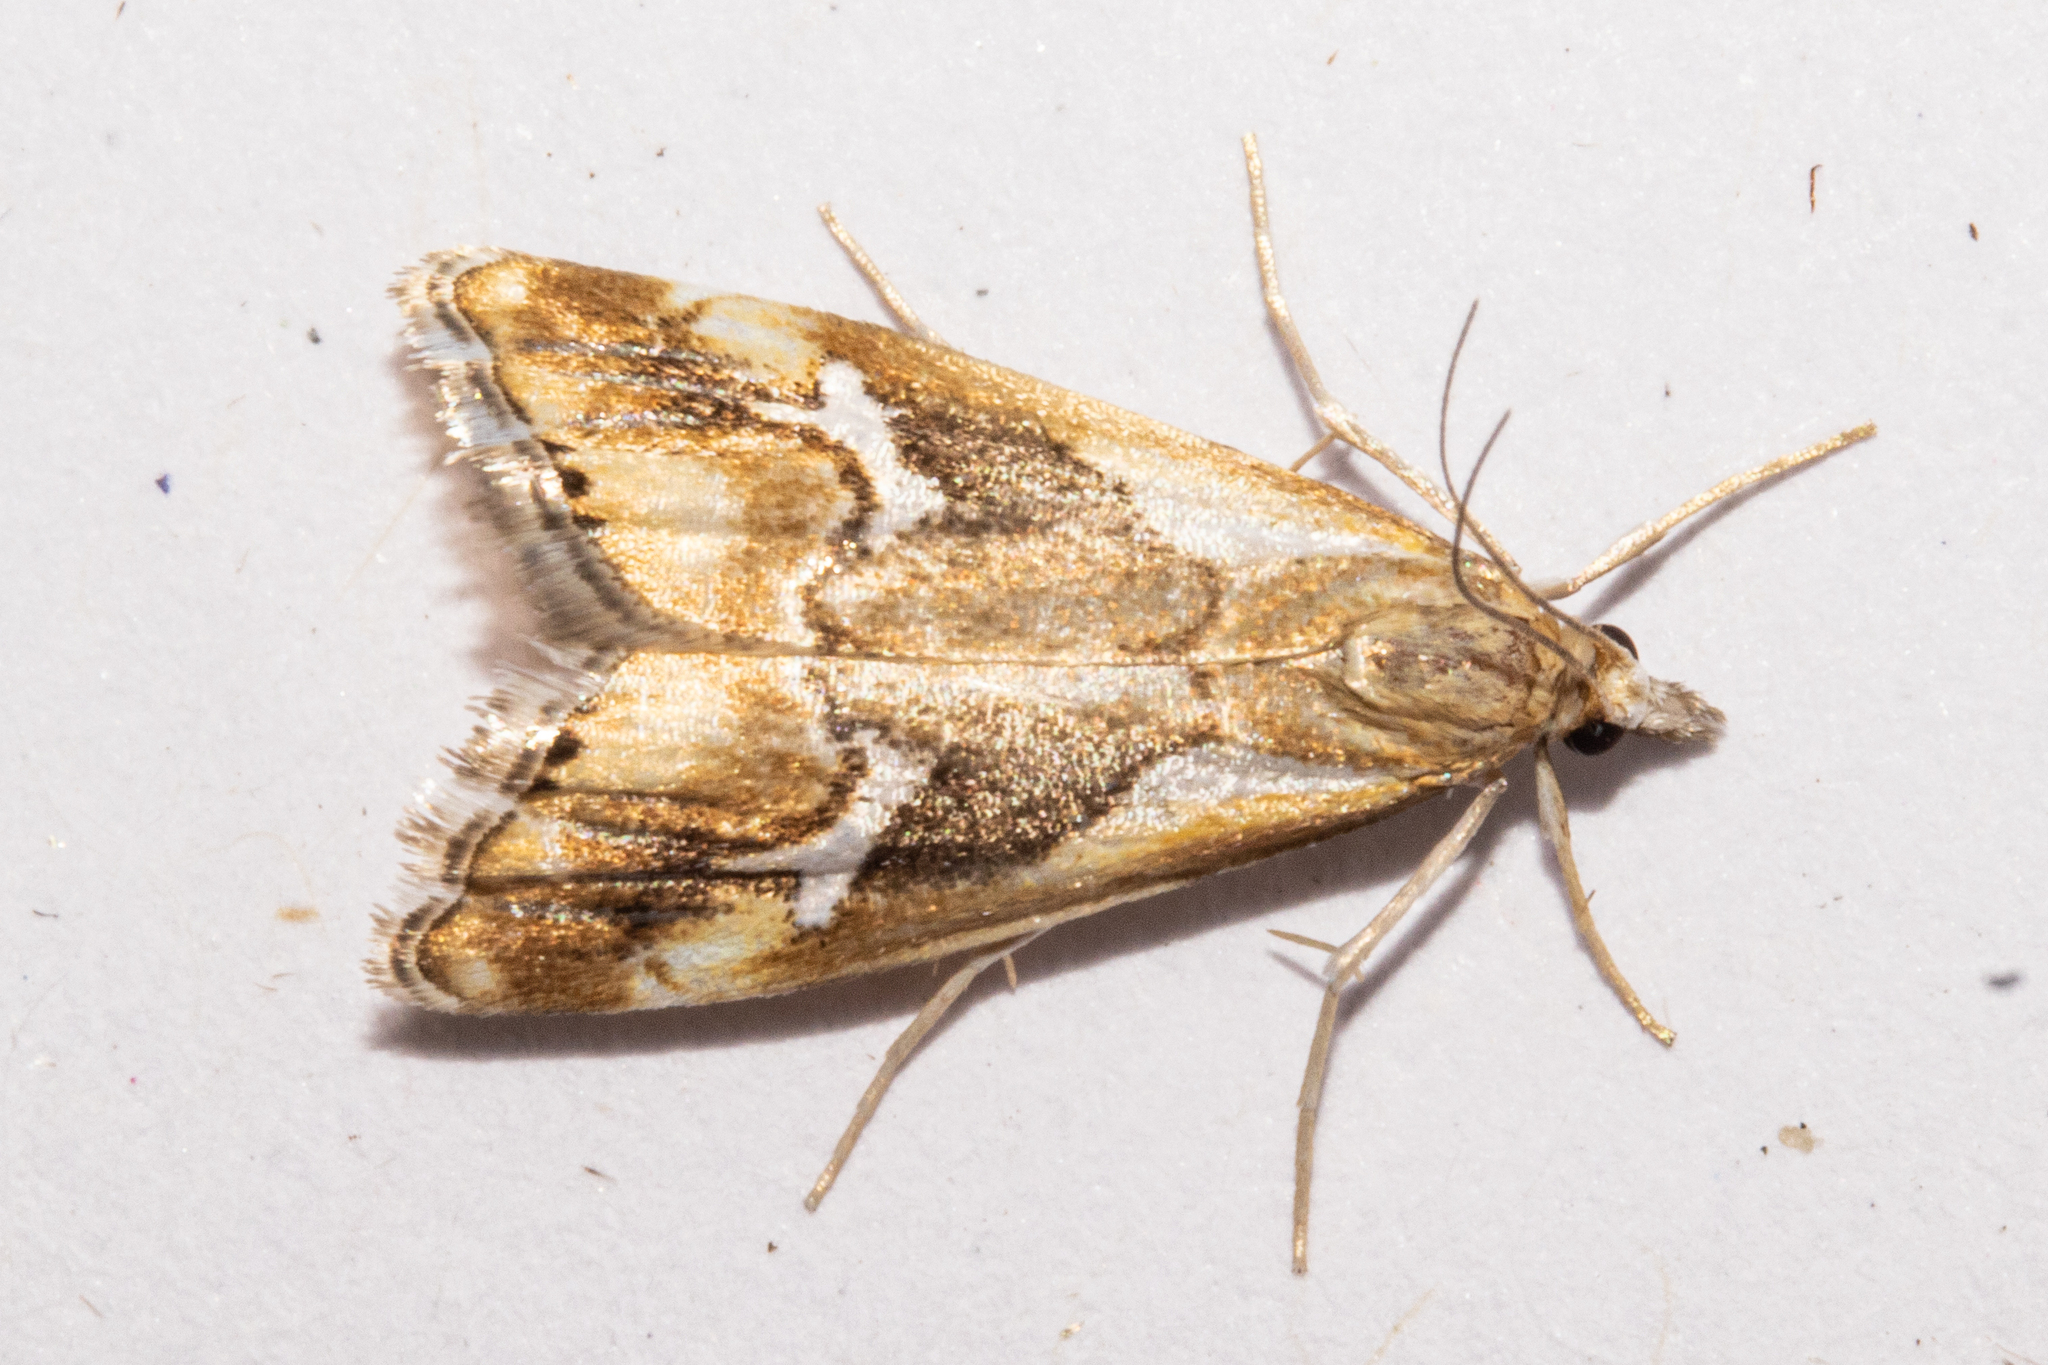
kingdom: Animalia
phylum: Arthropoda
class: Insecta
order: Lepidoptera
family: Crambidae
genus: Glaucocharis
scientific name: Glaucocharis interruptus
